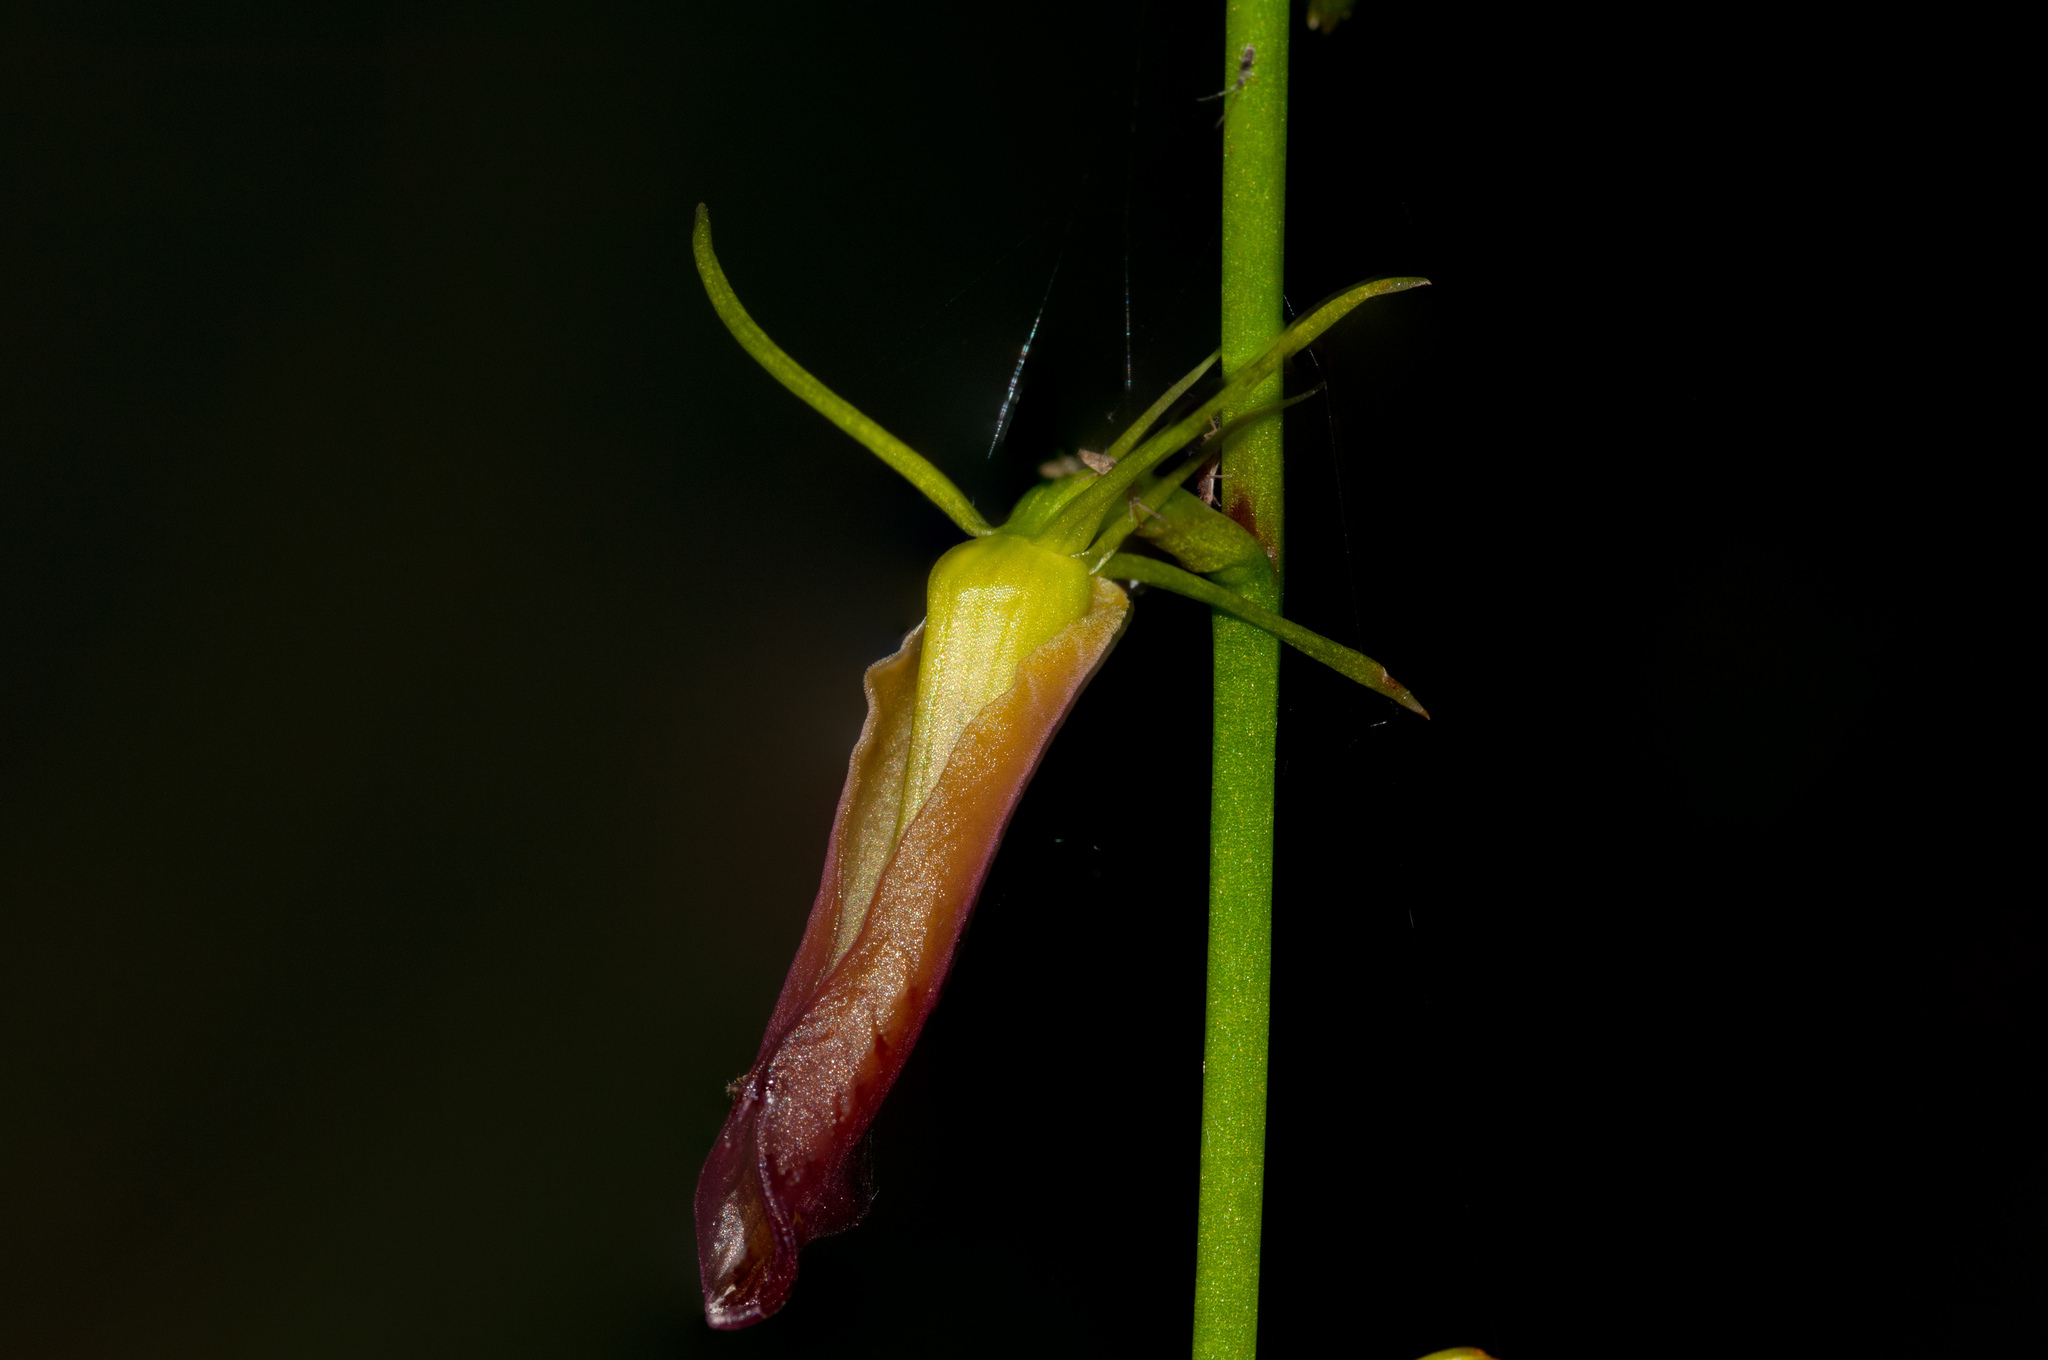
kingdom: Plantae
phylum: Tracheophyta
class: Liliopsida
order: Asparagales
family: Orchidaceae
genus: Cryptostylis
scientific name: Cryptostylis subulata
